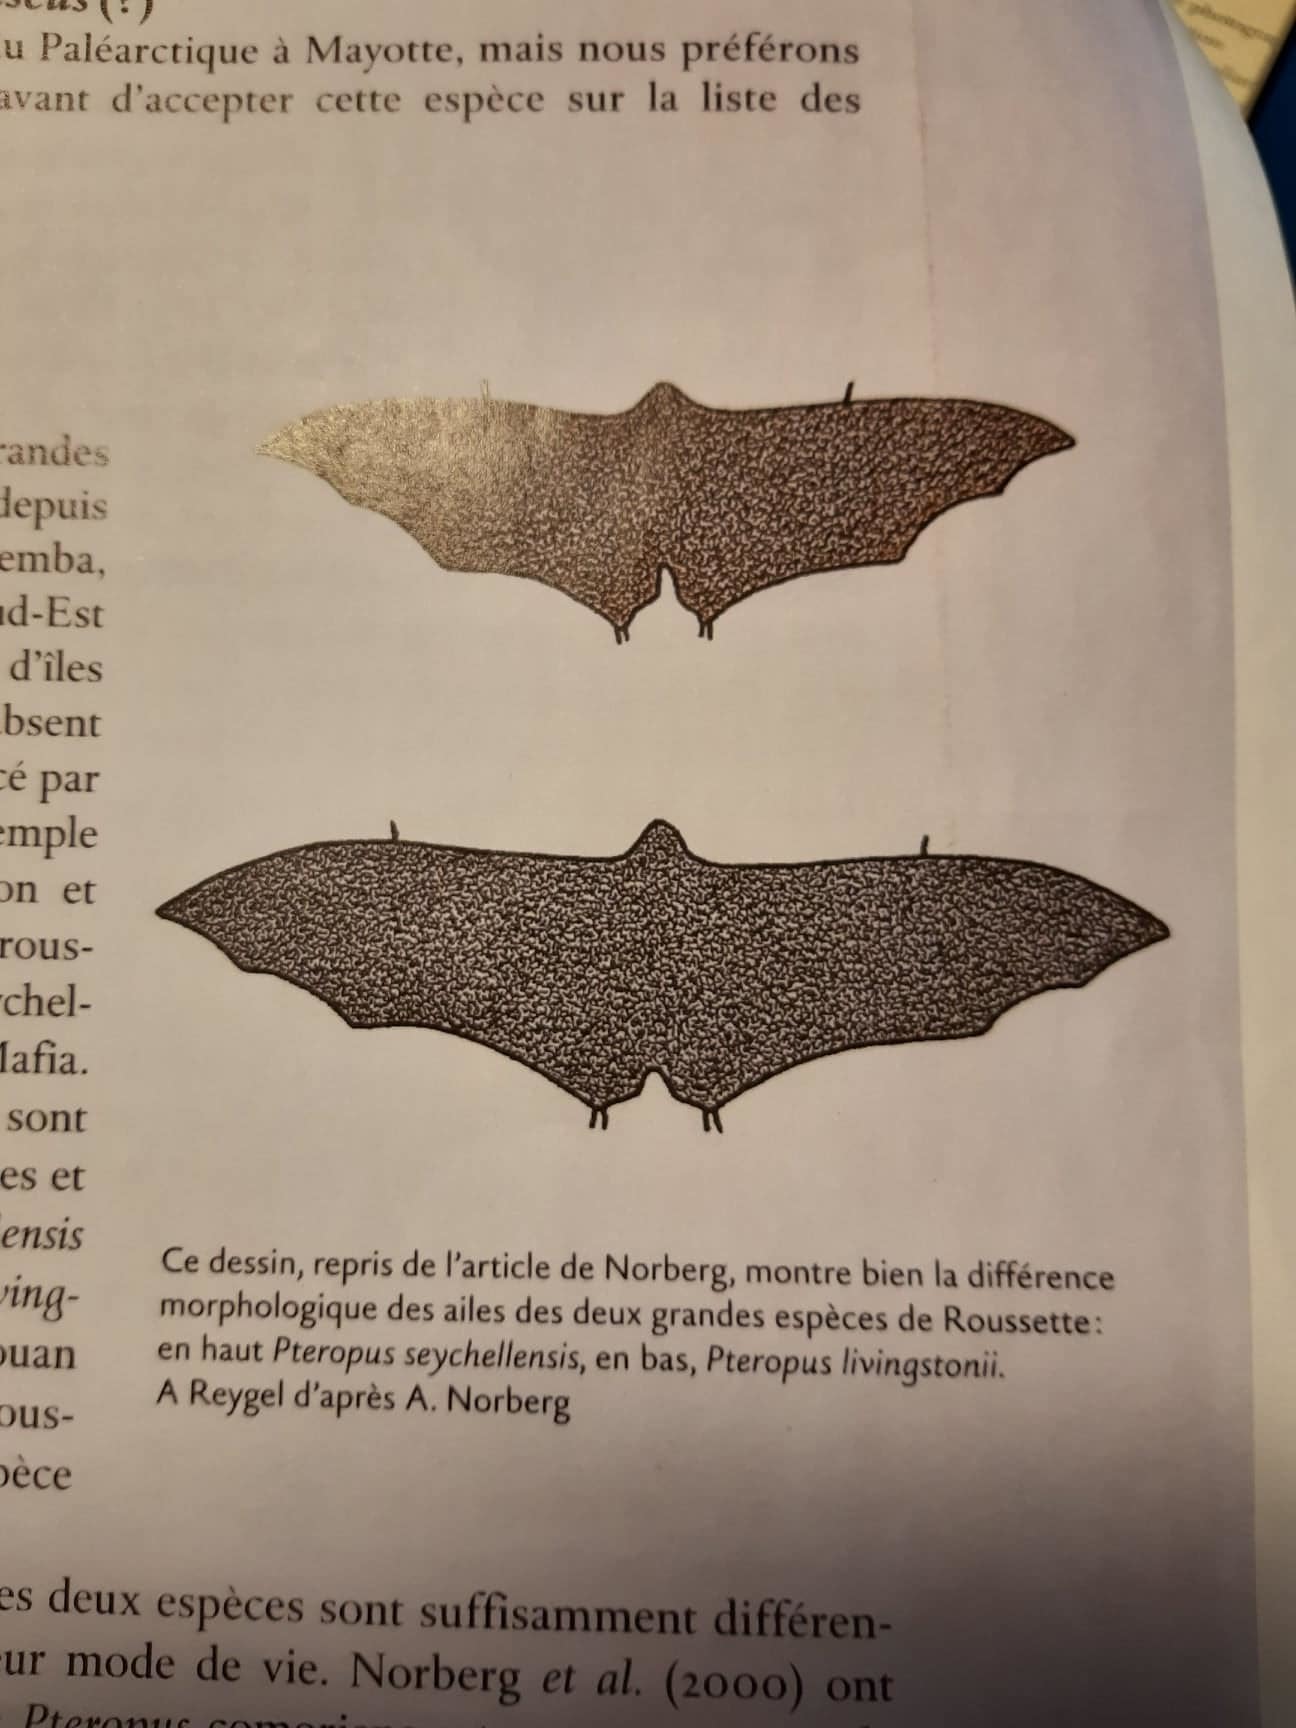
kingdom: Animalia
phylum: Chordata
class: Mammalia
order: Chiroptera
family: Pteropodidae
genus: Pteropus
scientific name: Pteropus livingstonii
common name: Comoro flying fox
